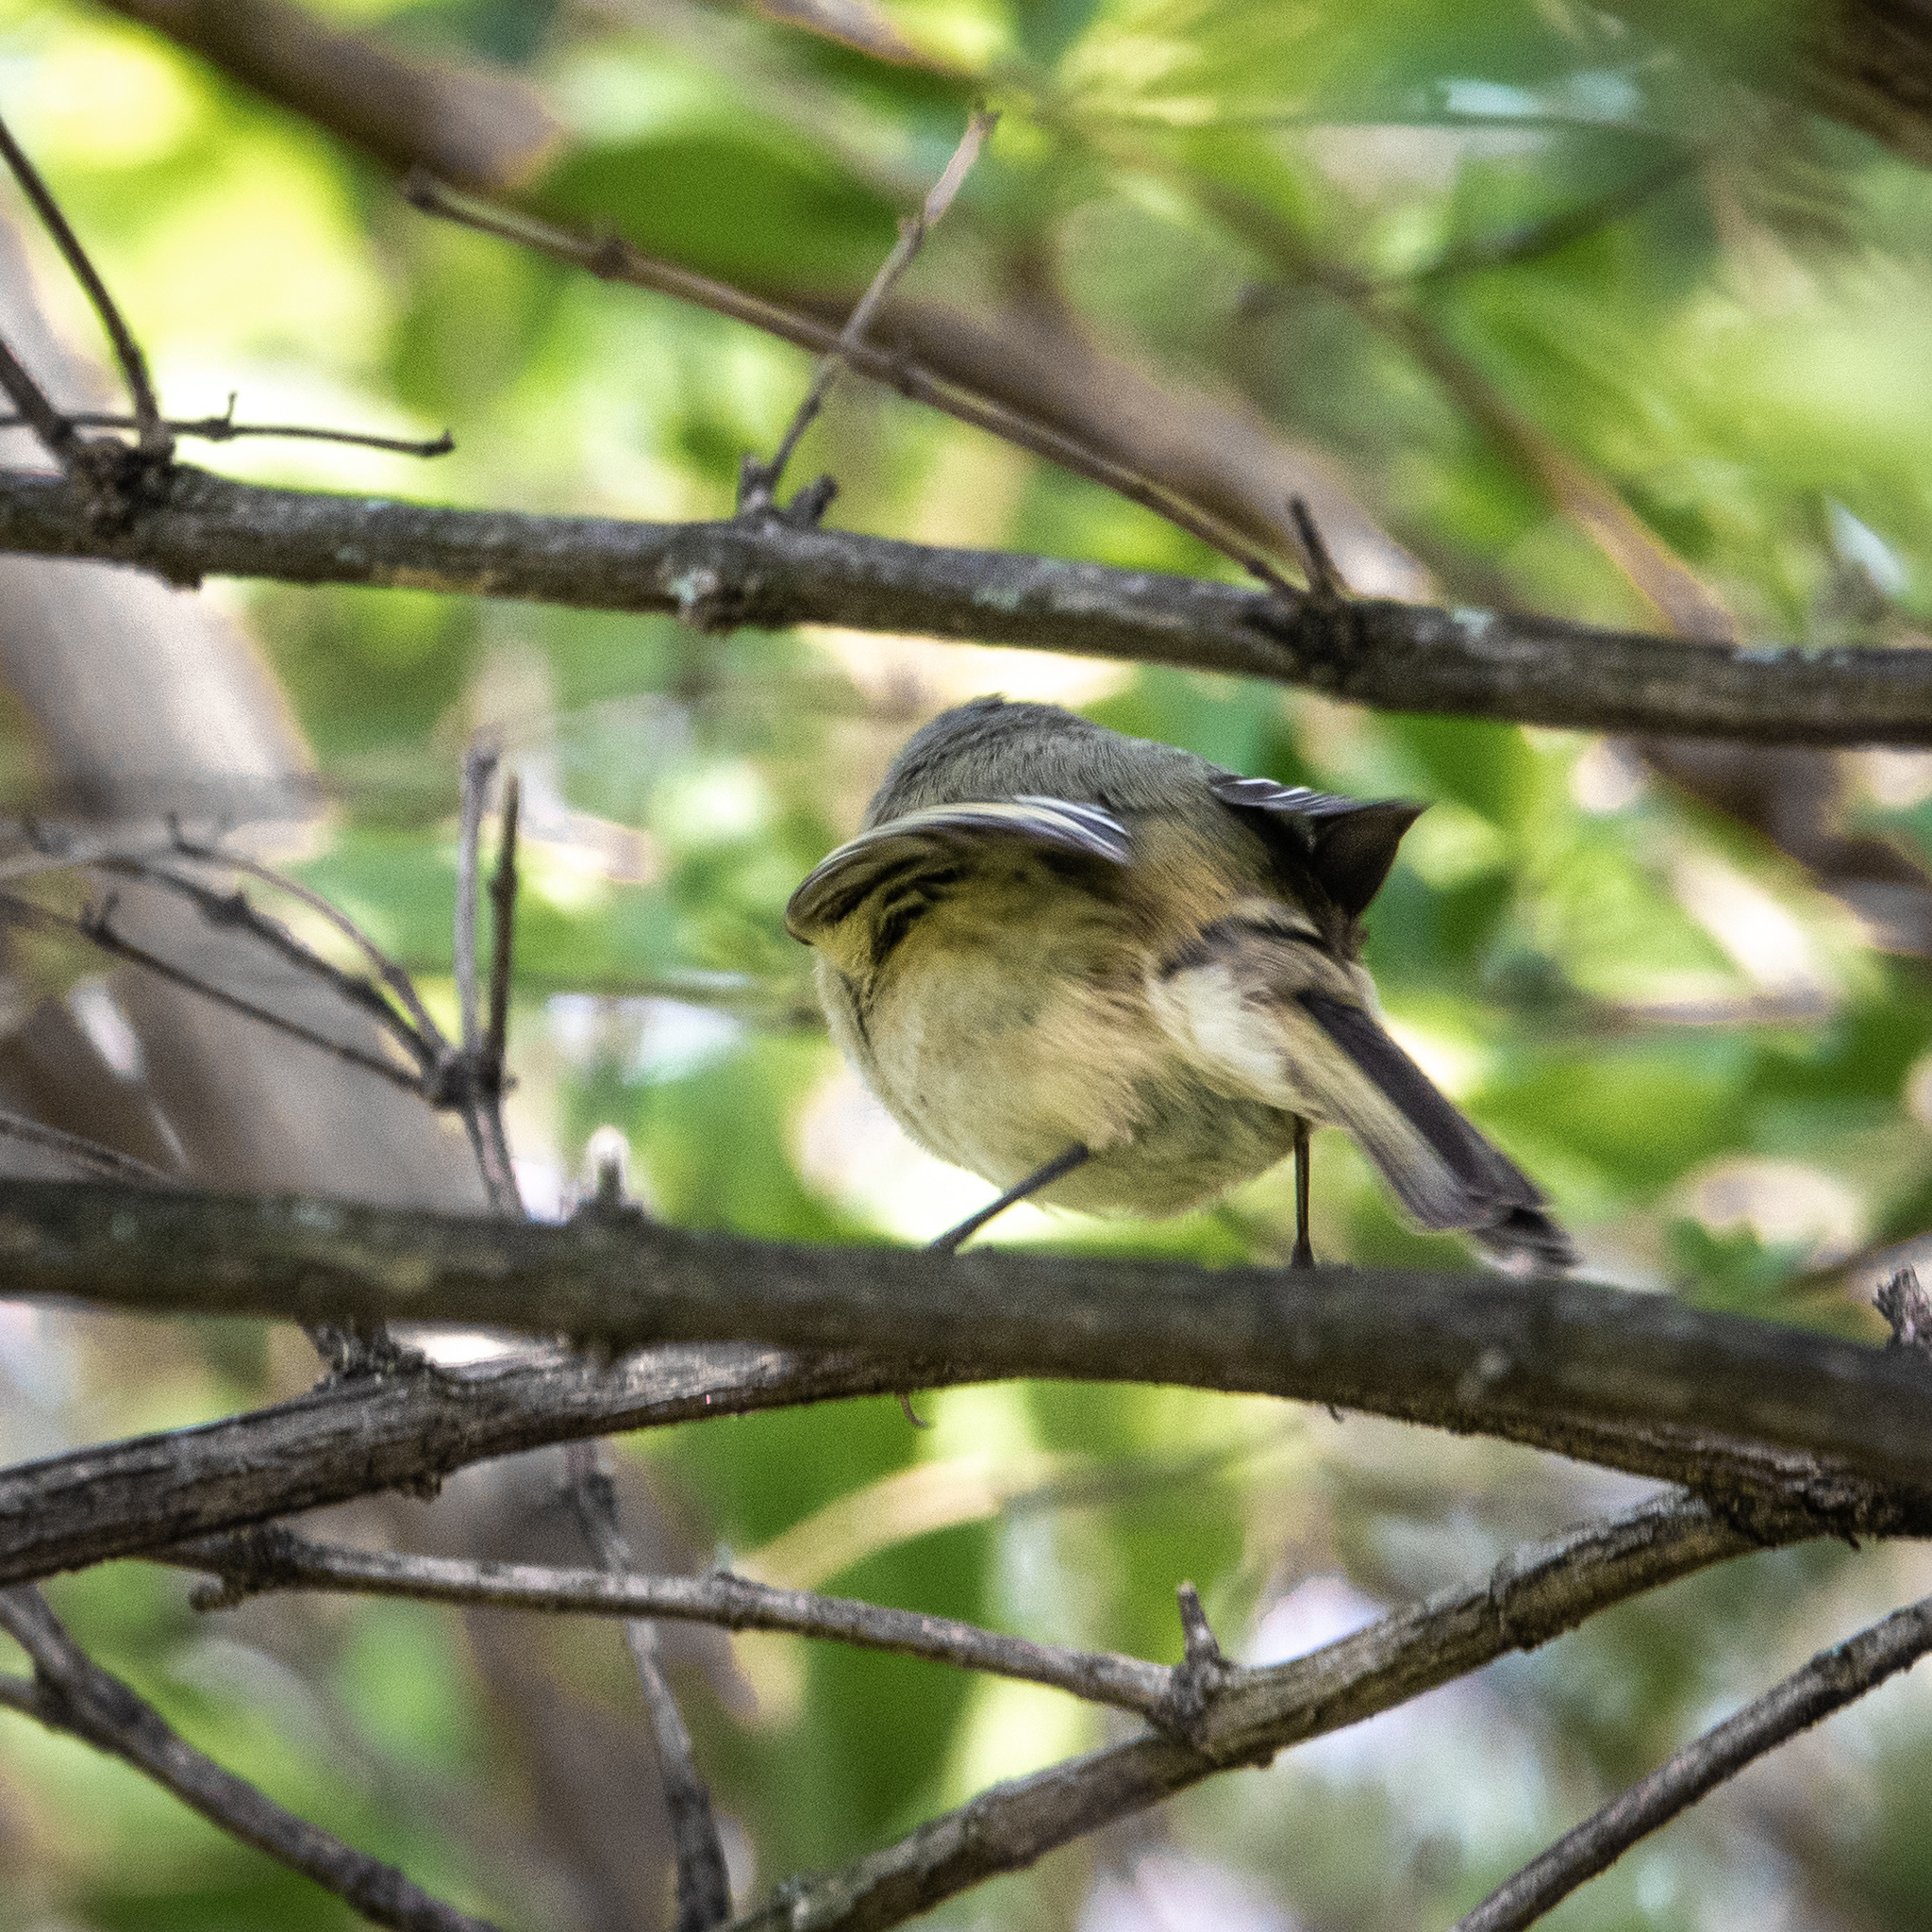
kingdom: Animalia
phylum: Chordata
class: Aves
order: Passeriformes
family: Regulidae
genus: Regulus
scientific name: Regulus calendula
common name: Ruby-crowned kinglet
